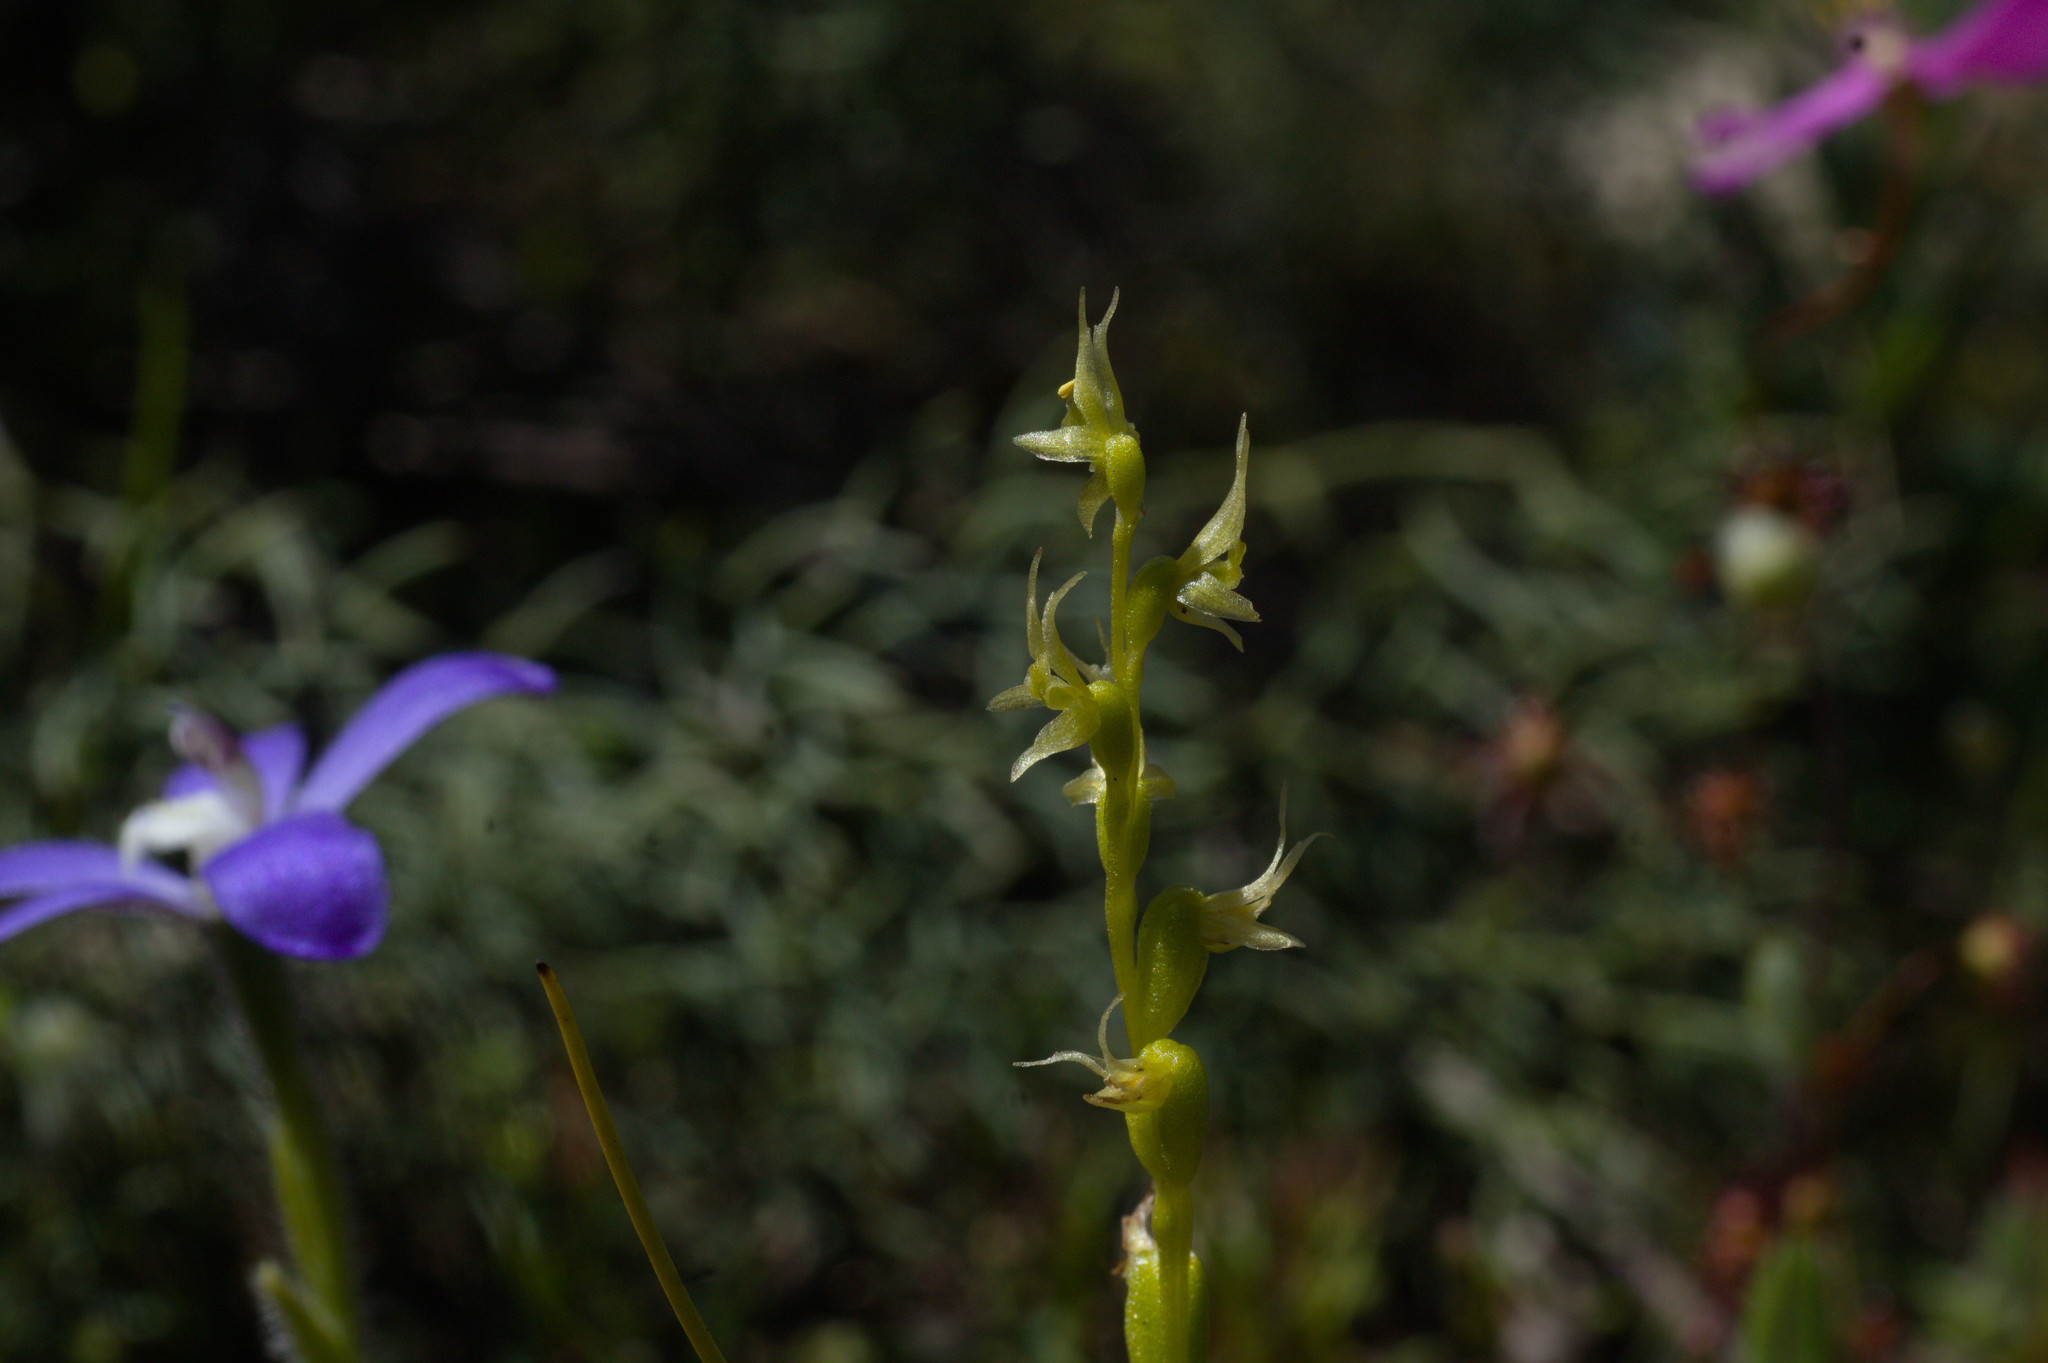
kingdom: Plantae
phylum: Tracheophyta
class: Liliopsida
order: Asparagales
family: Orchidaceae
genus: Prasophyllum
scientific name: Prasophyllum gracile
